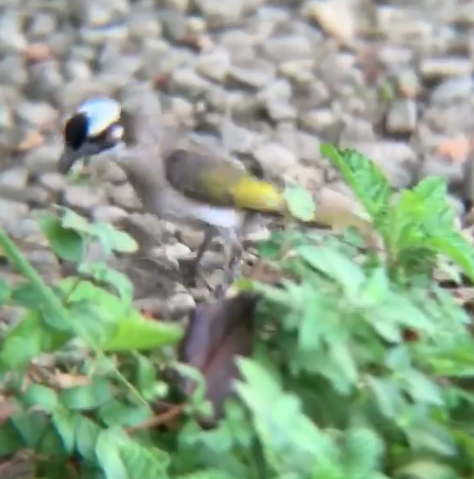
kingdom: Animalia
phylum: Chordata
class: Aves
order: Passeriformes
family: Pycnonotidae
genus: Pycnonotus
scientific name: Pycnonotus sinensis
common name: Light-vented bulbul
